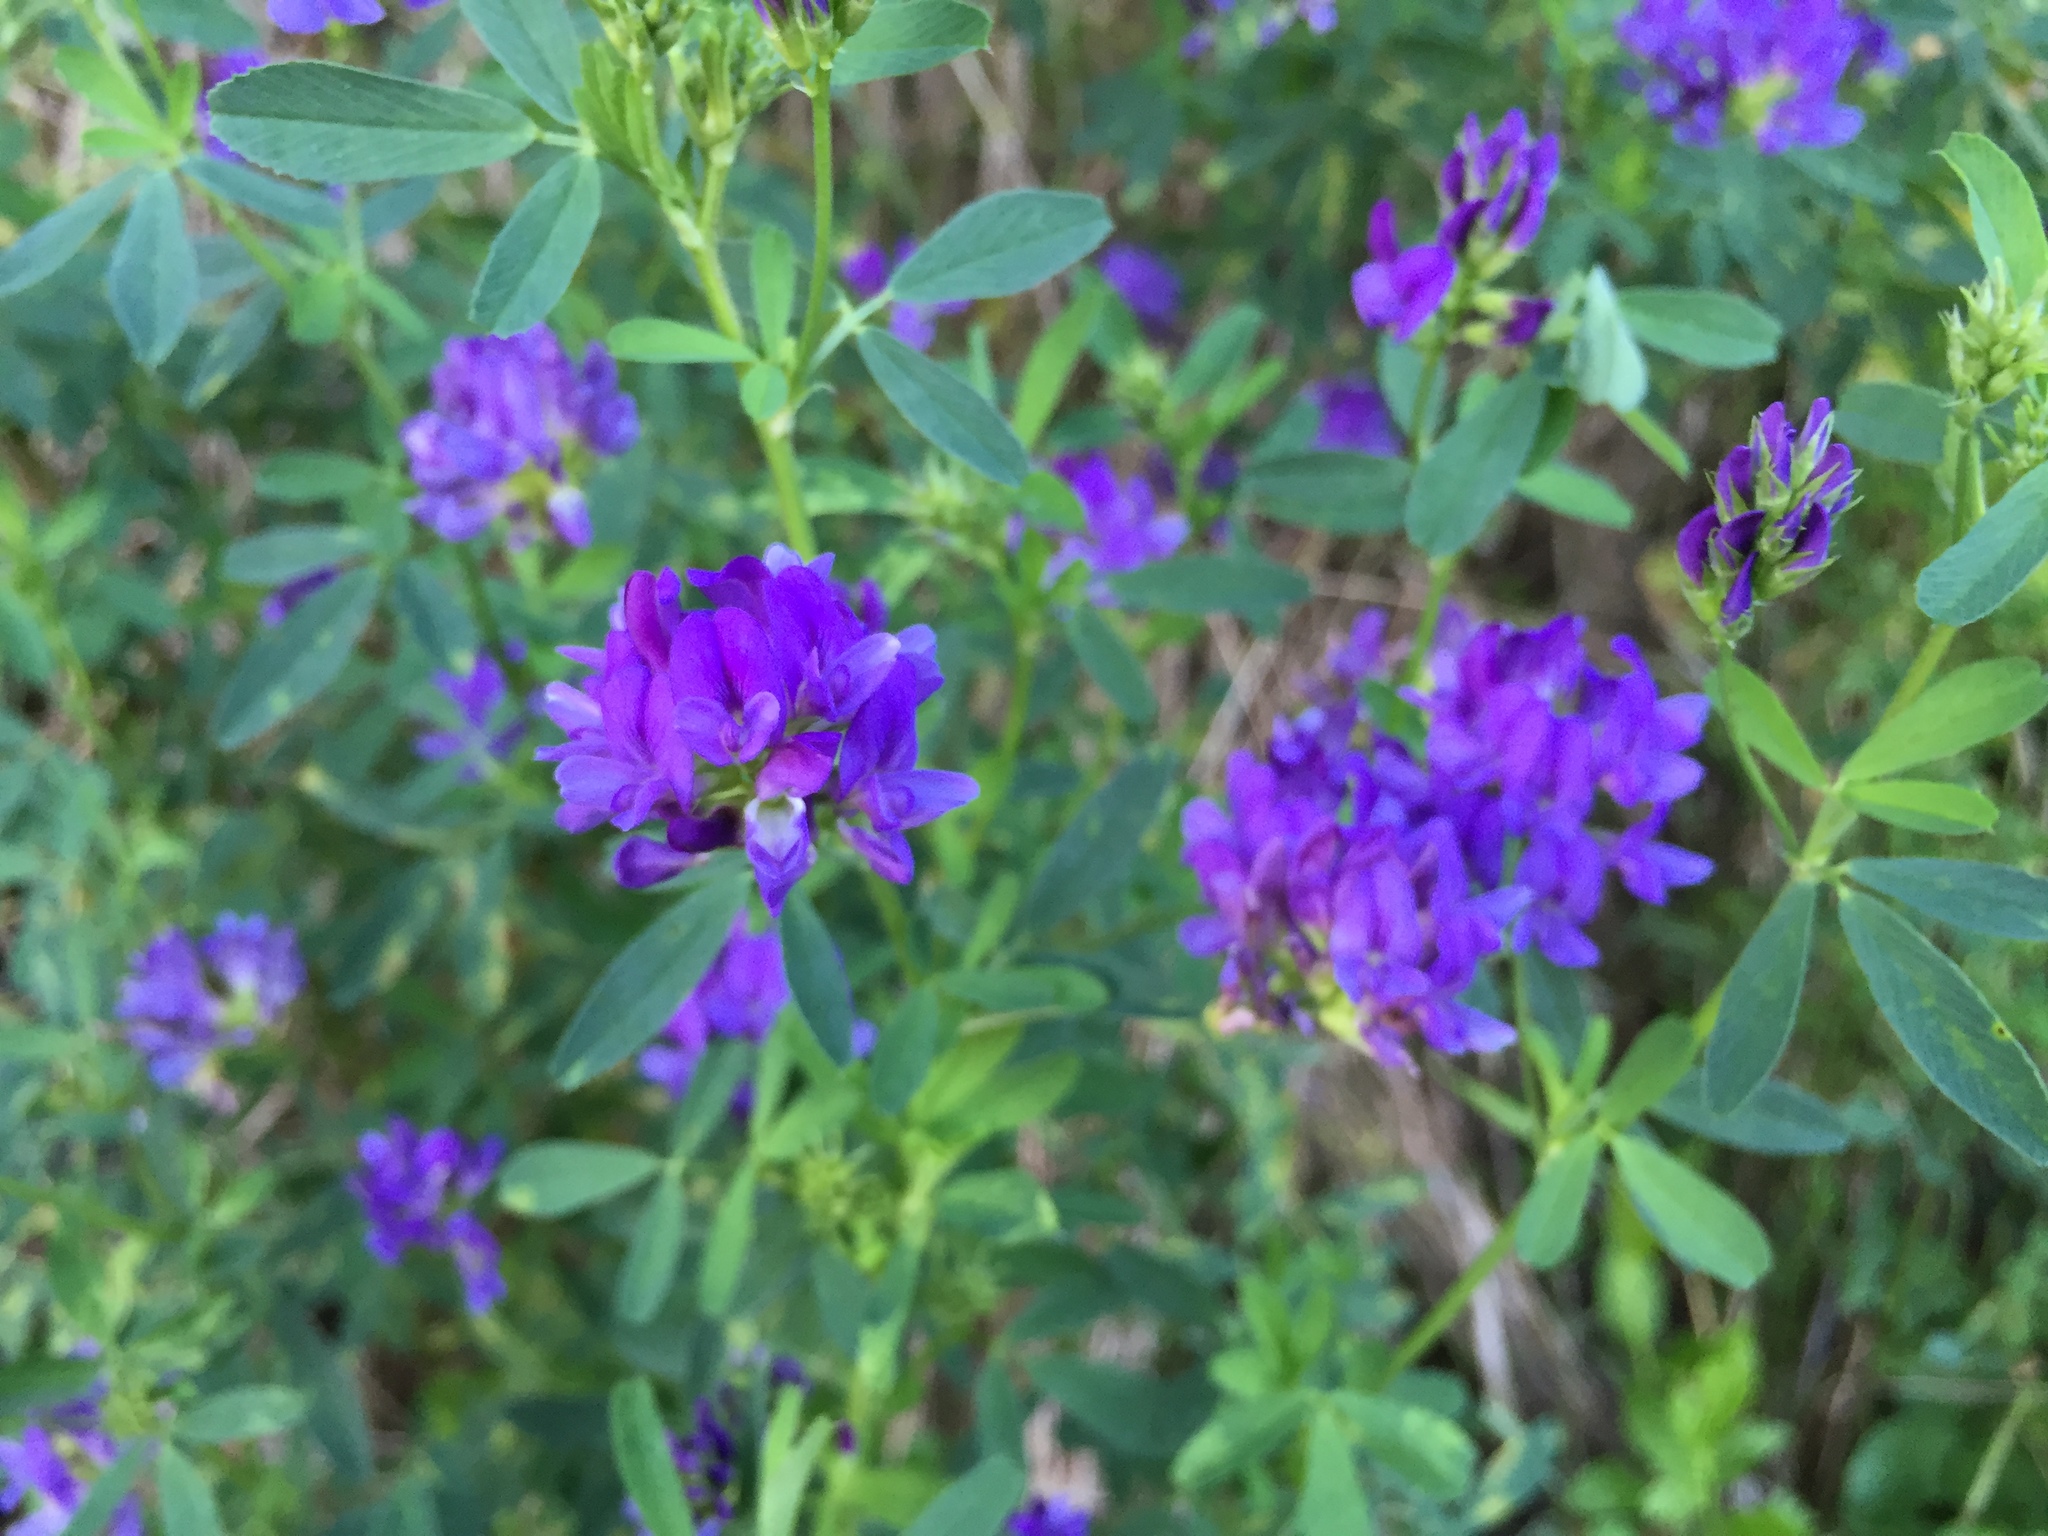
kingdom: Plantae
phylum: Tracheophyta
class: Magnoliopsida
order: Fabales
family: Fabaceae
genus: Medicago
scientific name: Medicago sativa
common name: Alfalfa
